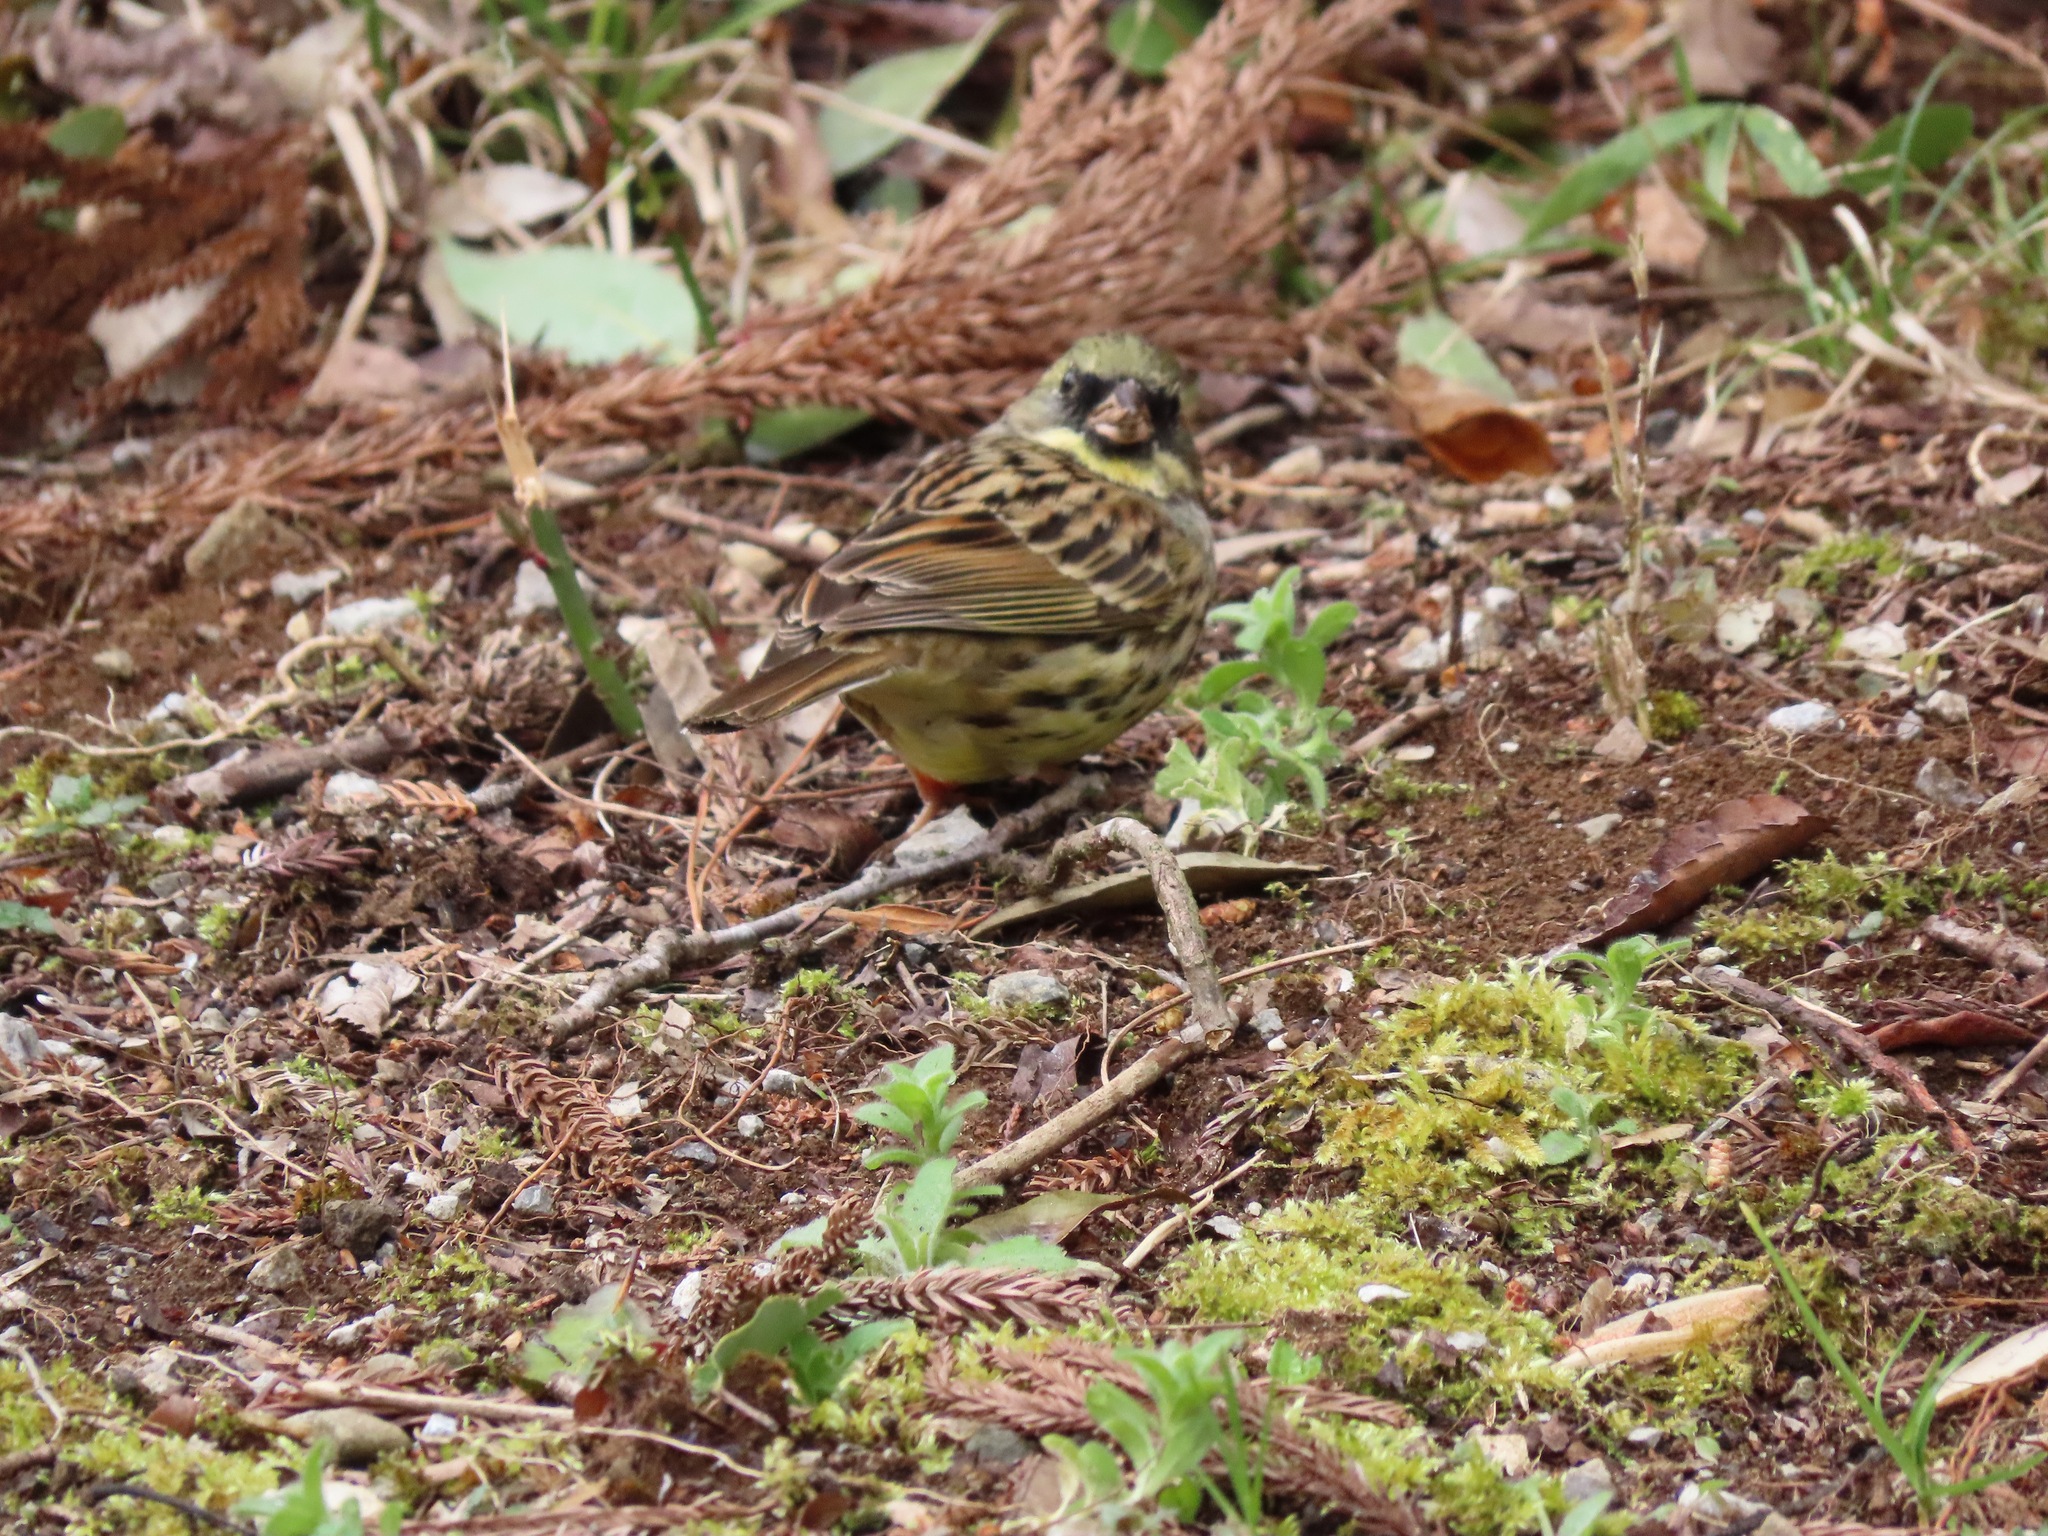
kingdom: Animalia
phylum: Chordata
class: Aves
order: Passeriformes
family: Emberizidae
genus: Emberiza
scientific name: Emberiza personata
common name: Masked bunting
